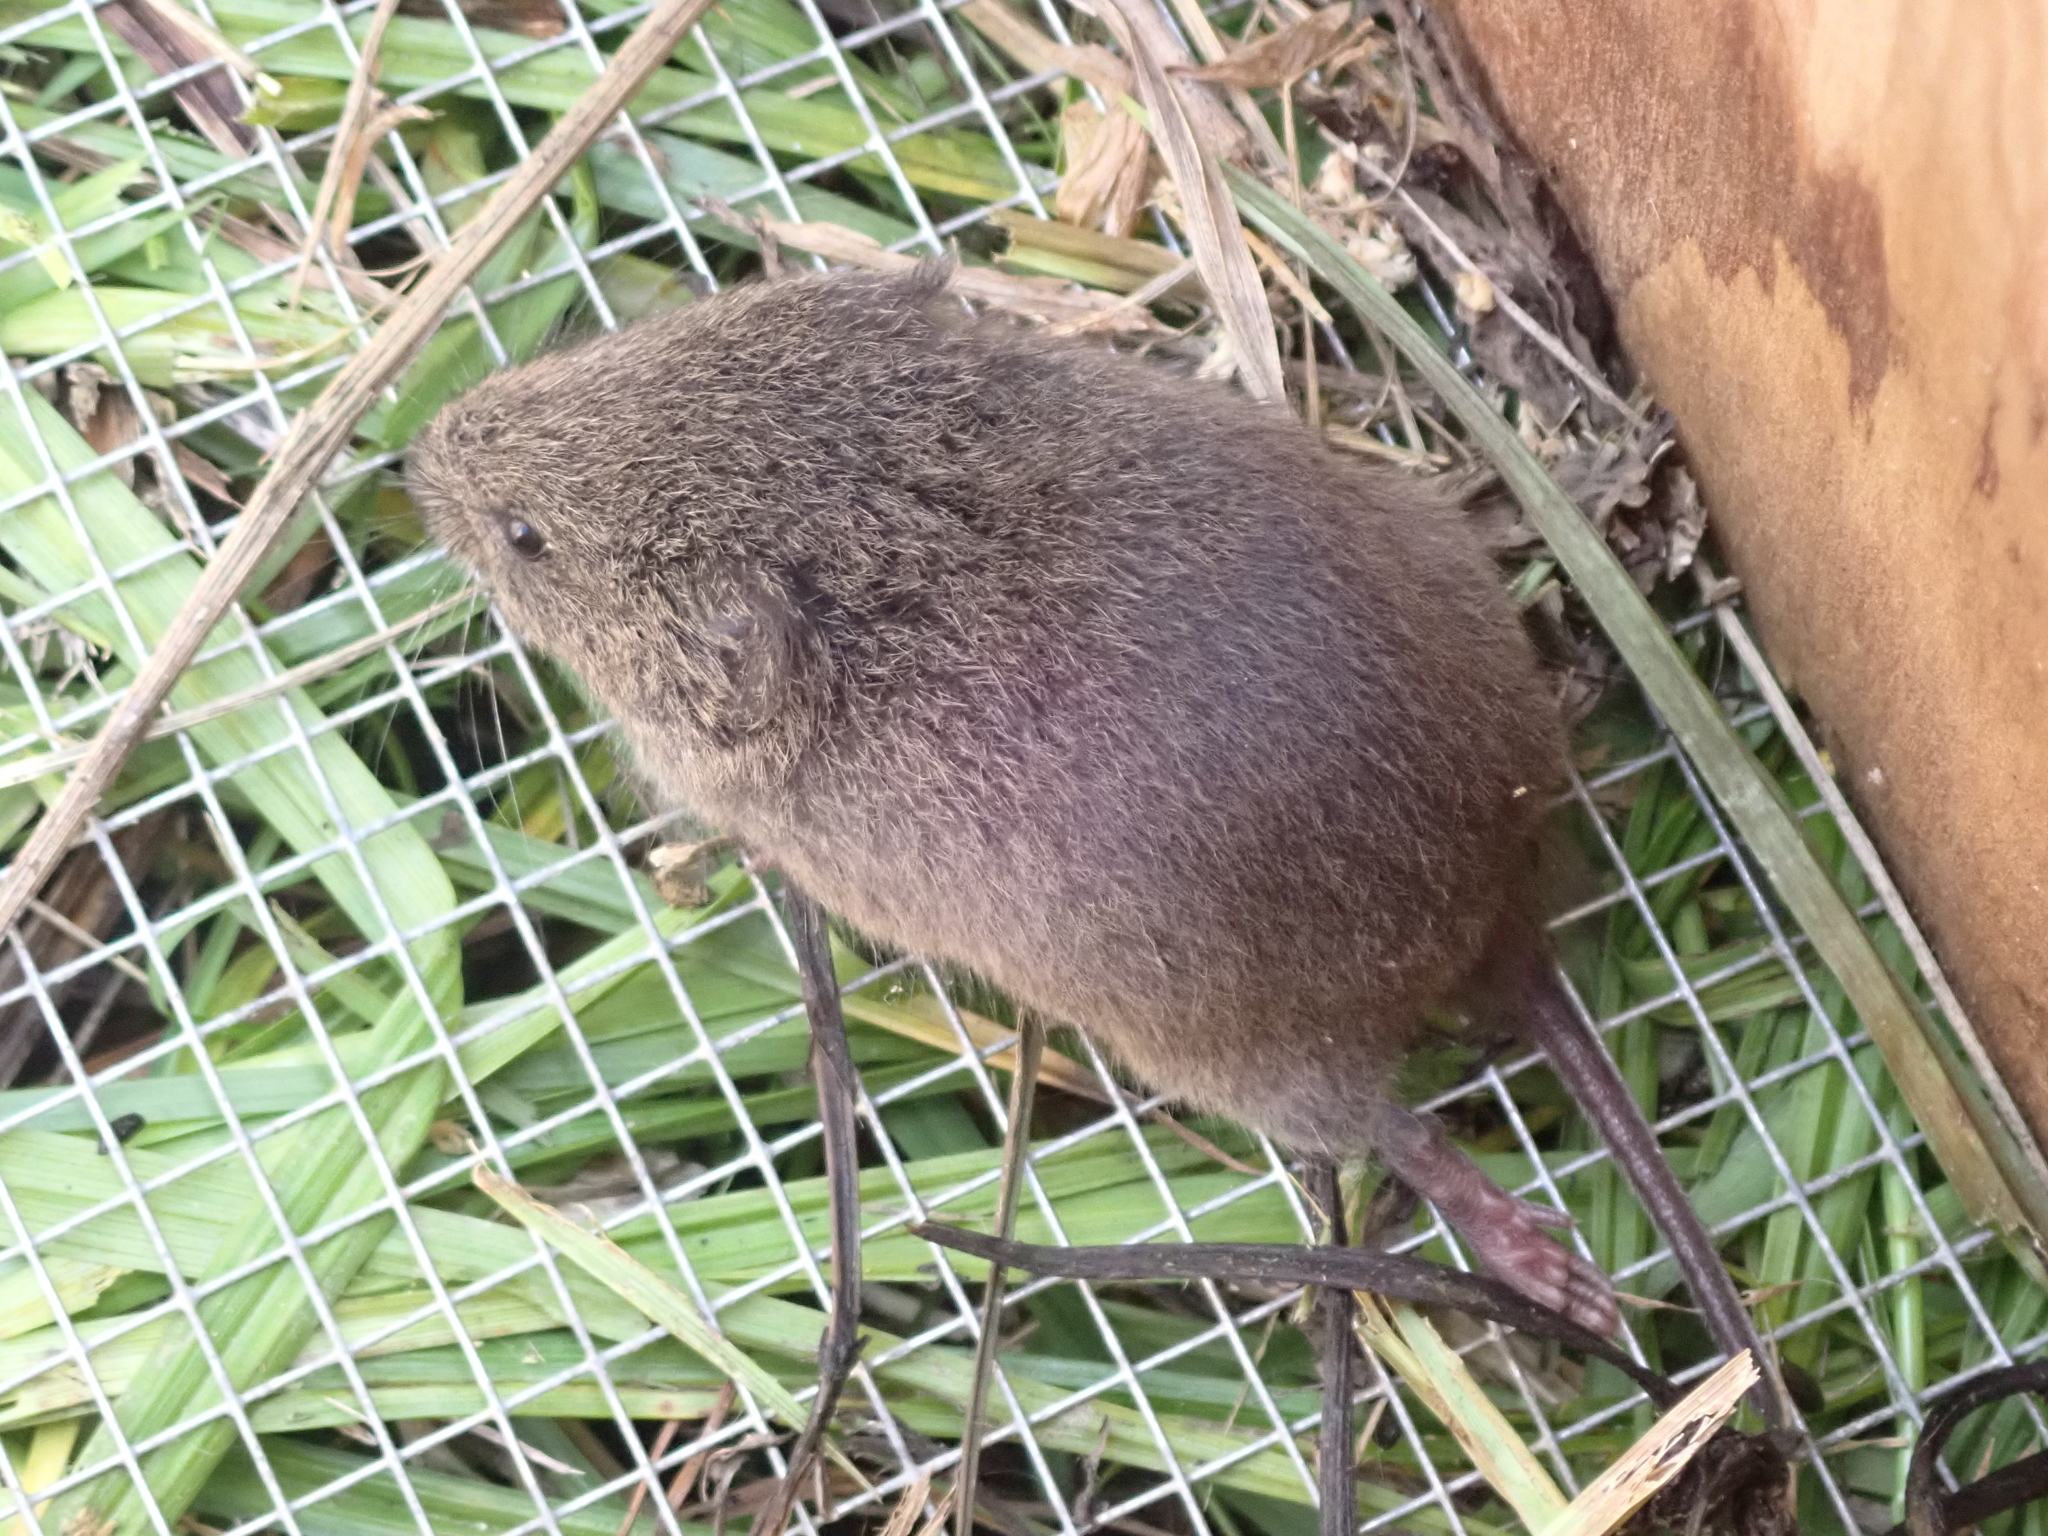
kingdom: Animalia
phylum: Chordata
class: Mammalia
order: Rodentia
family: Cricetidae
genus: Microtus
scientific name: Microtus pennsylvanicus
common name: Meadow vole
